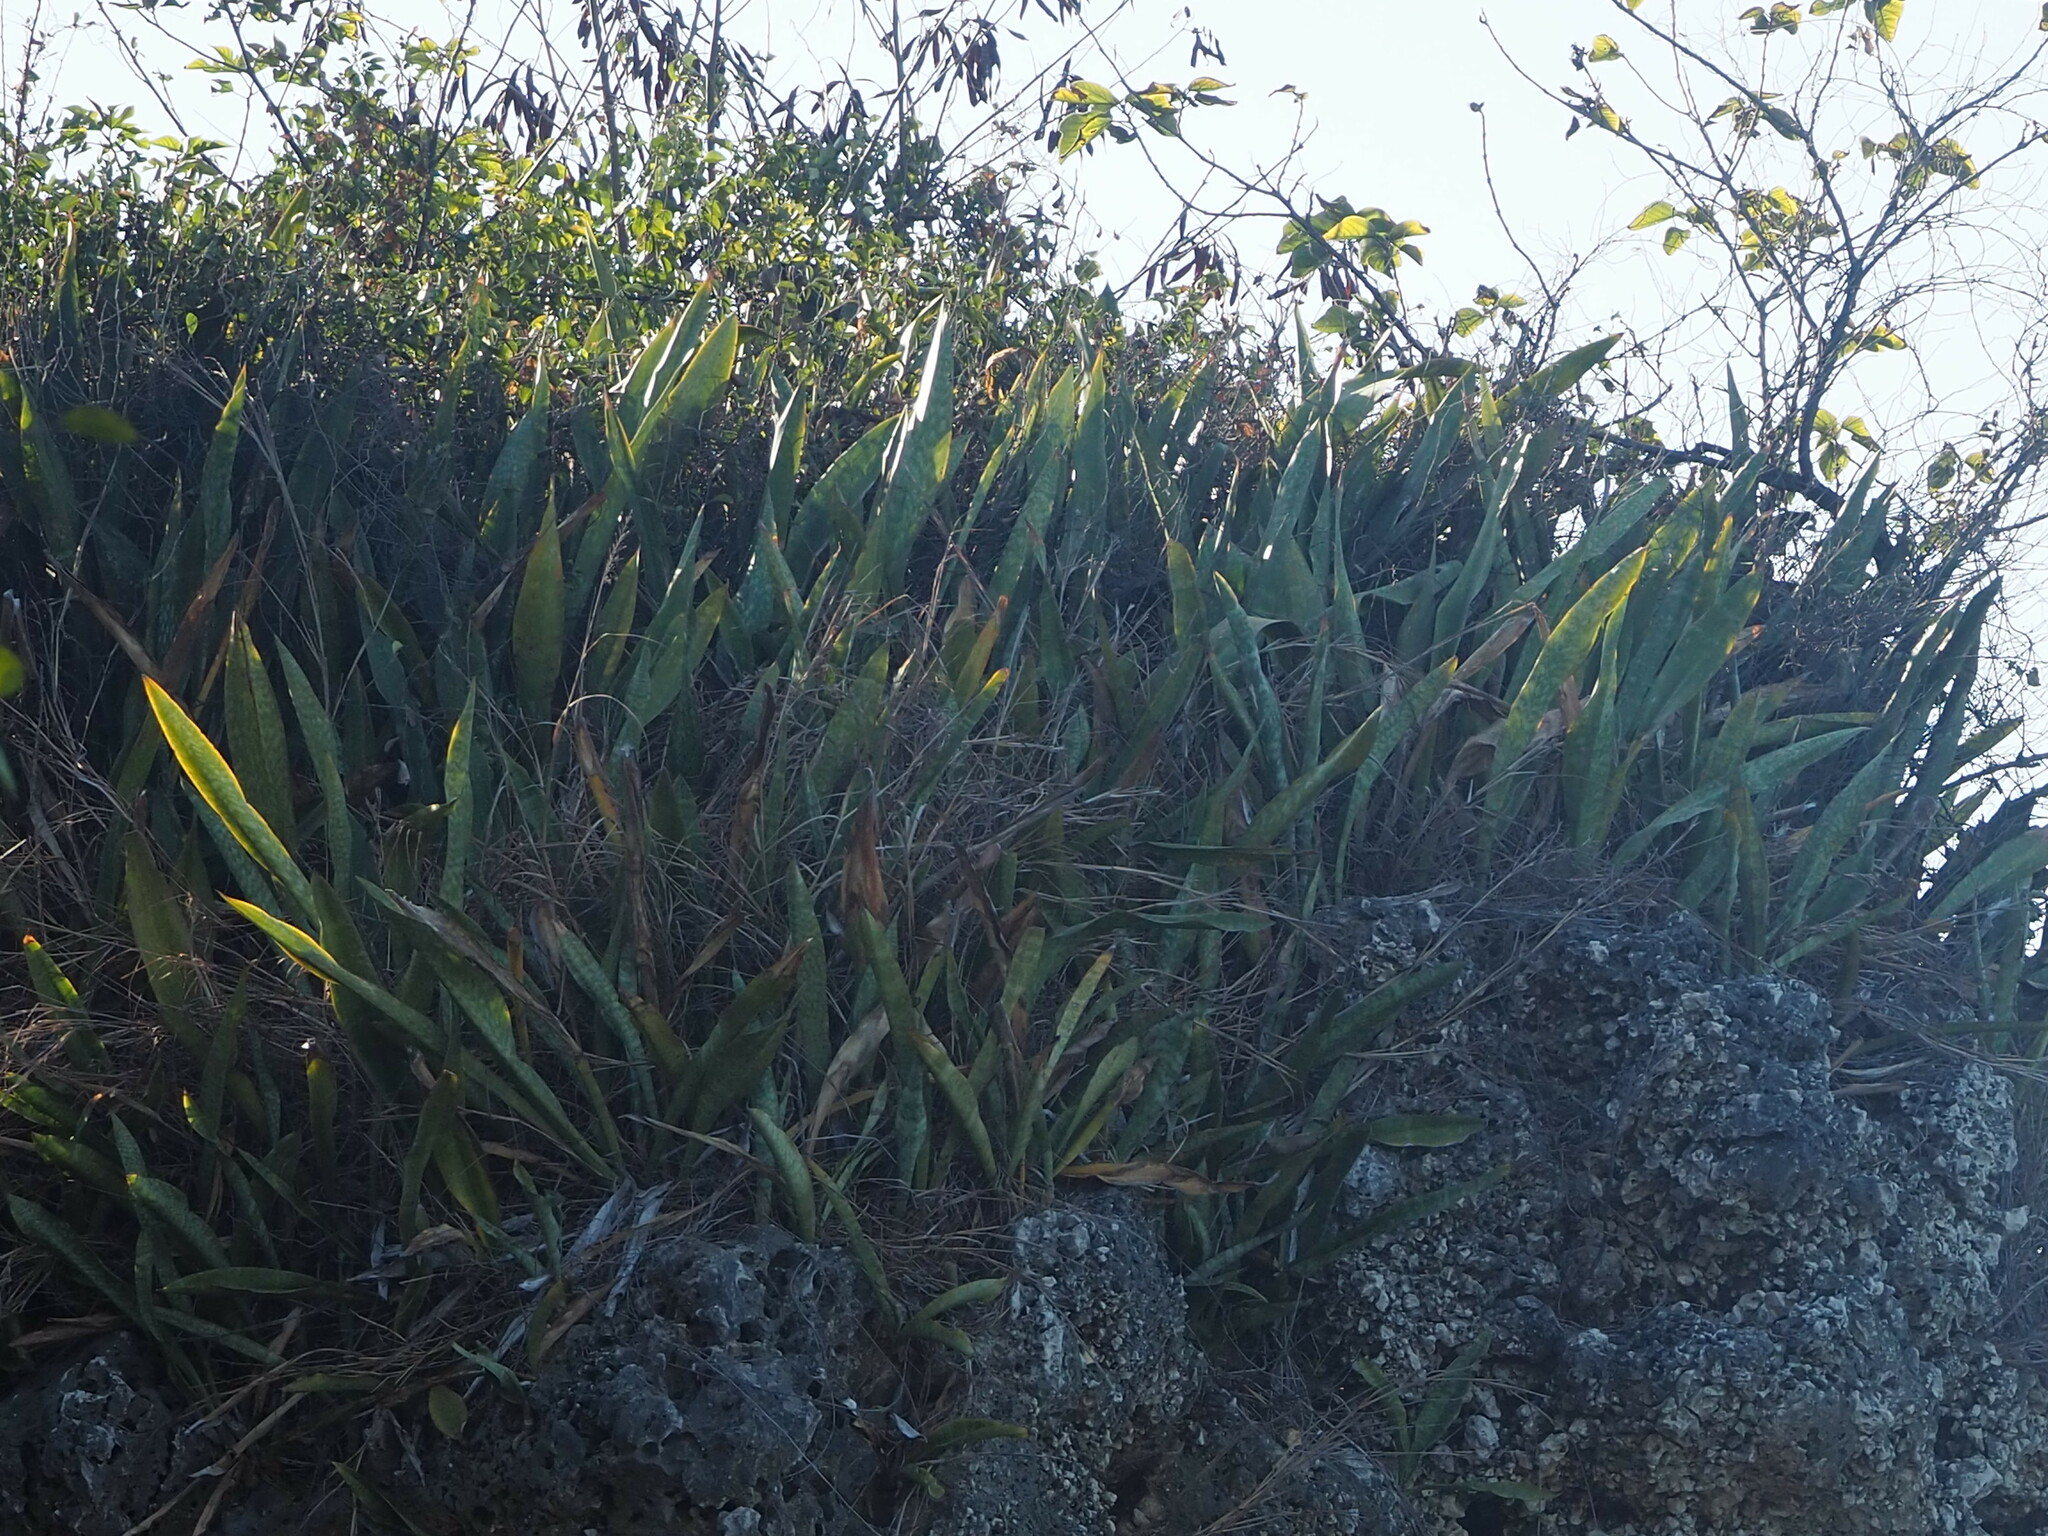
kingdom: Plantae
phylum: Tracheophyta
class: Liliopsida
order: Asparagales
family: Asparagaceae
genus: Dracaena
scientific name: Dracaena trifasciata
